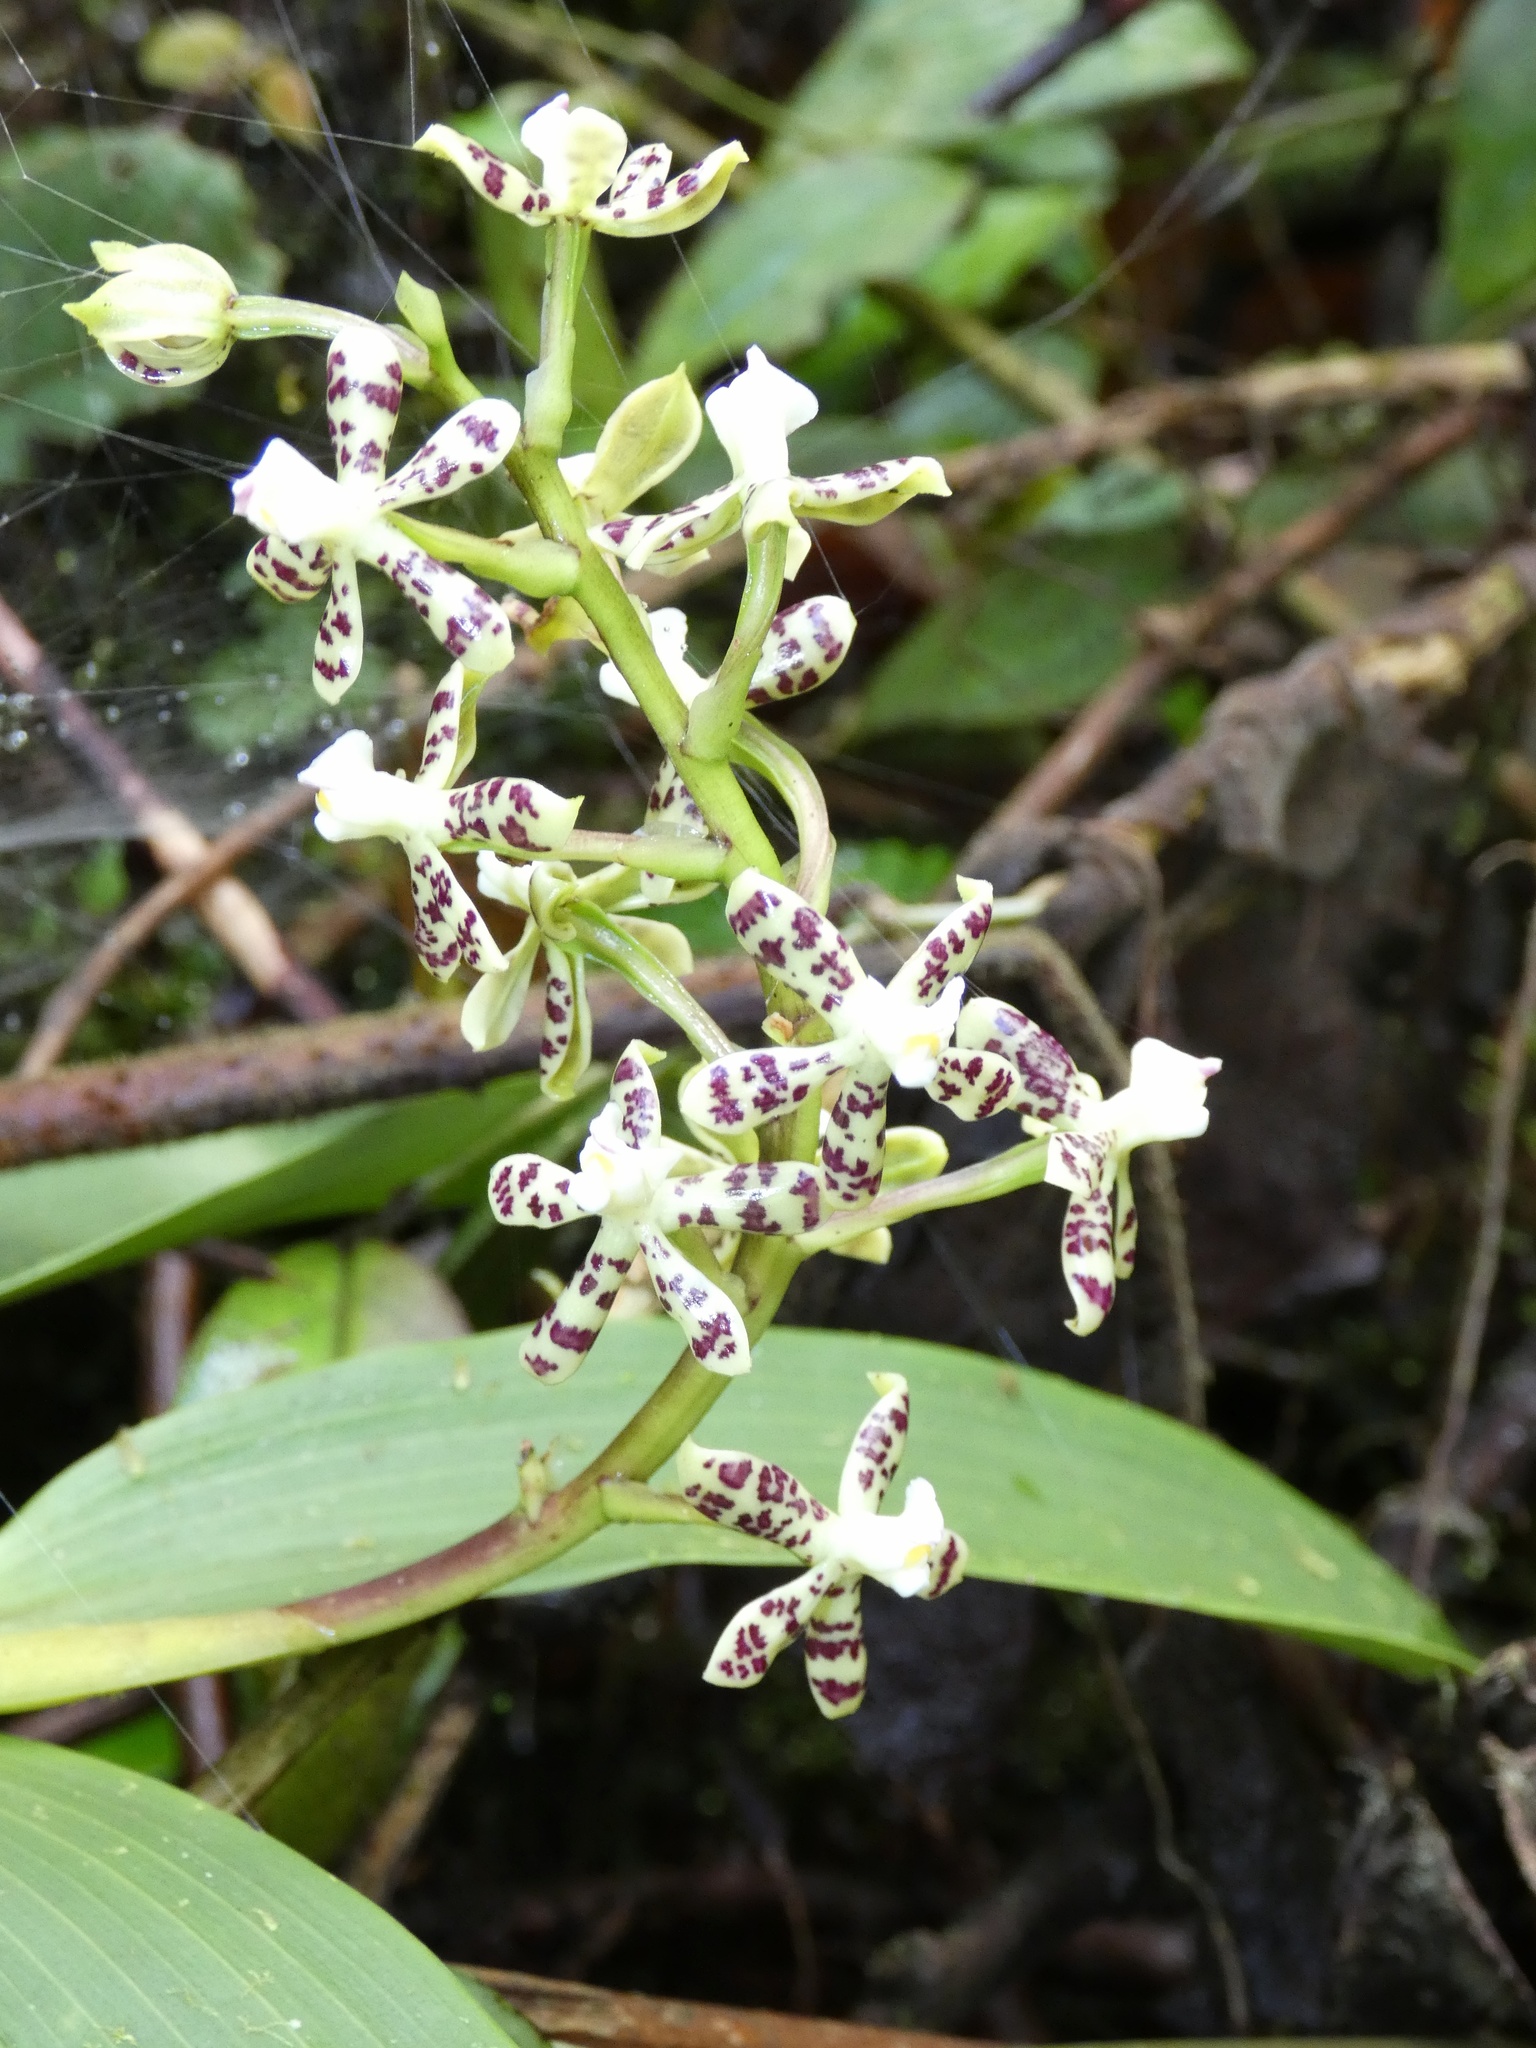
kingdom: Plantae
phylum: Tracheophyta
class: Liliopsida
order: Asparagales
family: Orchidaceae
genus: Prosthechea
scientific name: Prosthechea crassilabia
